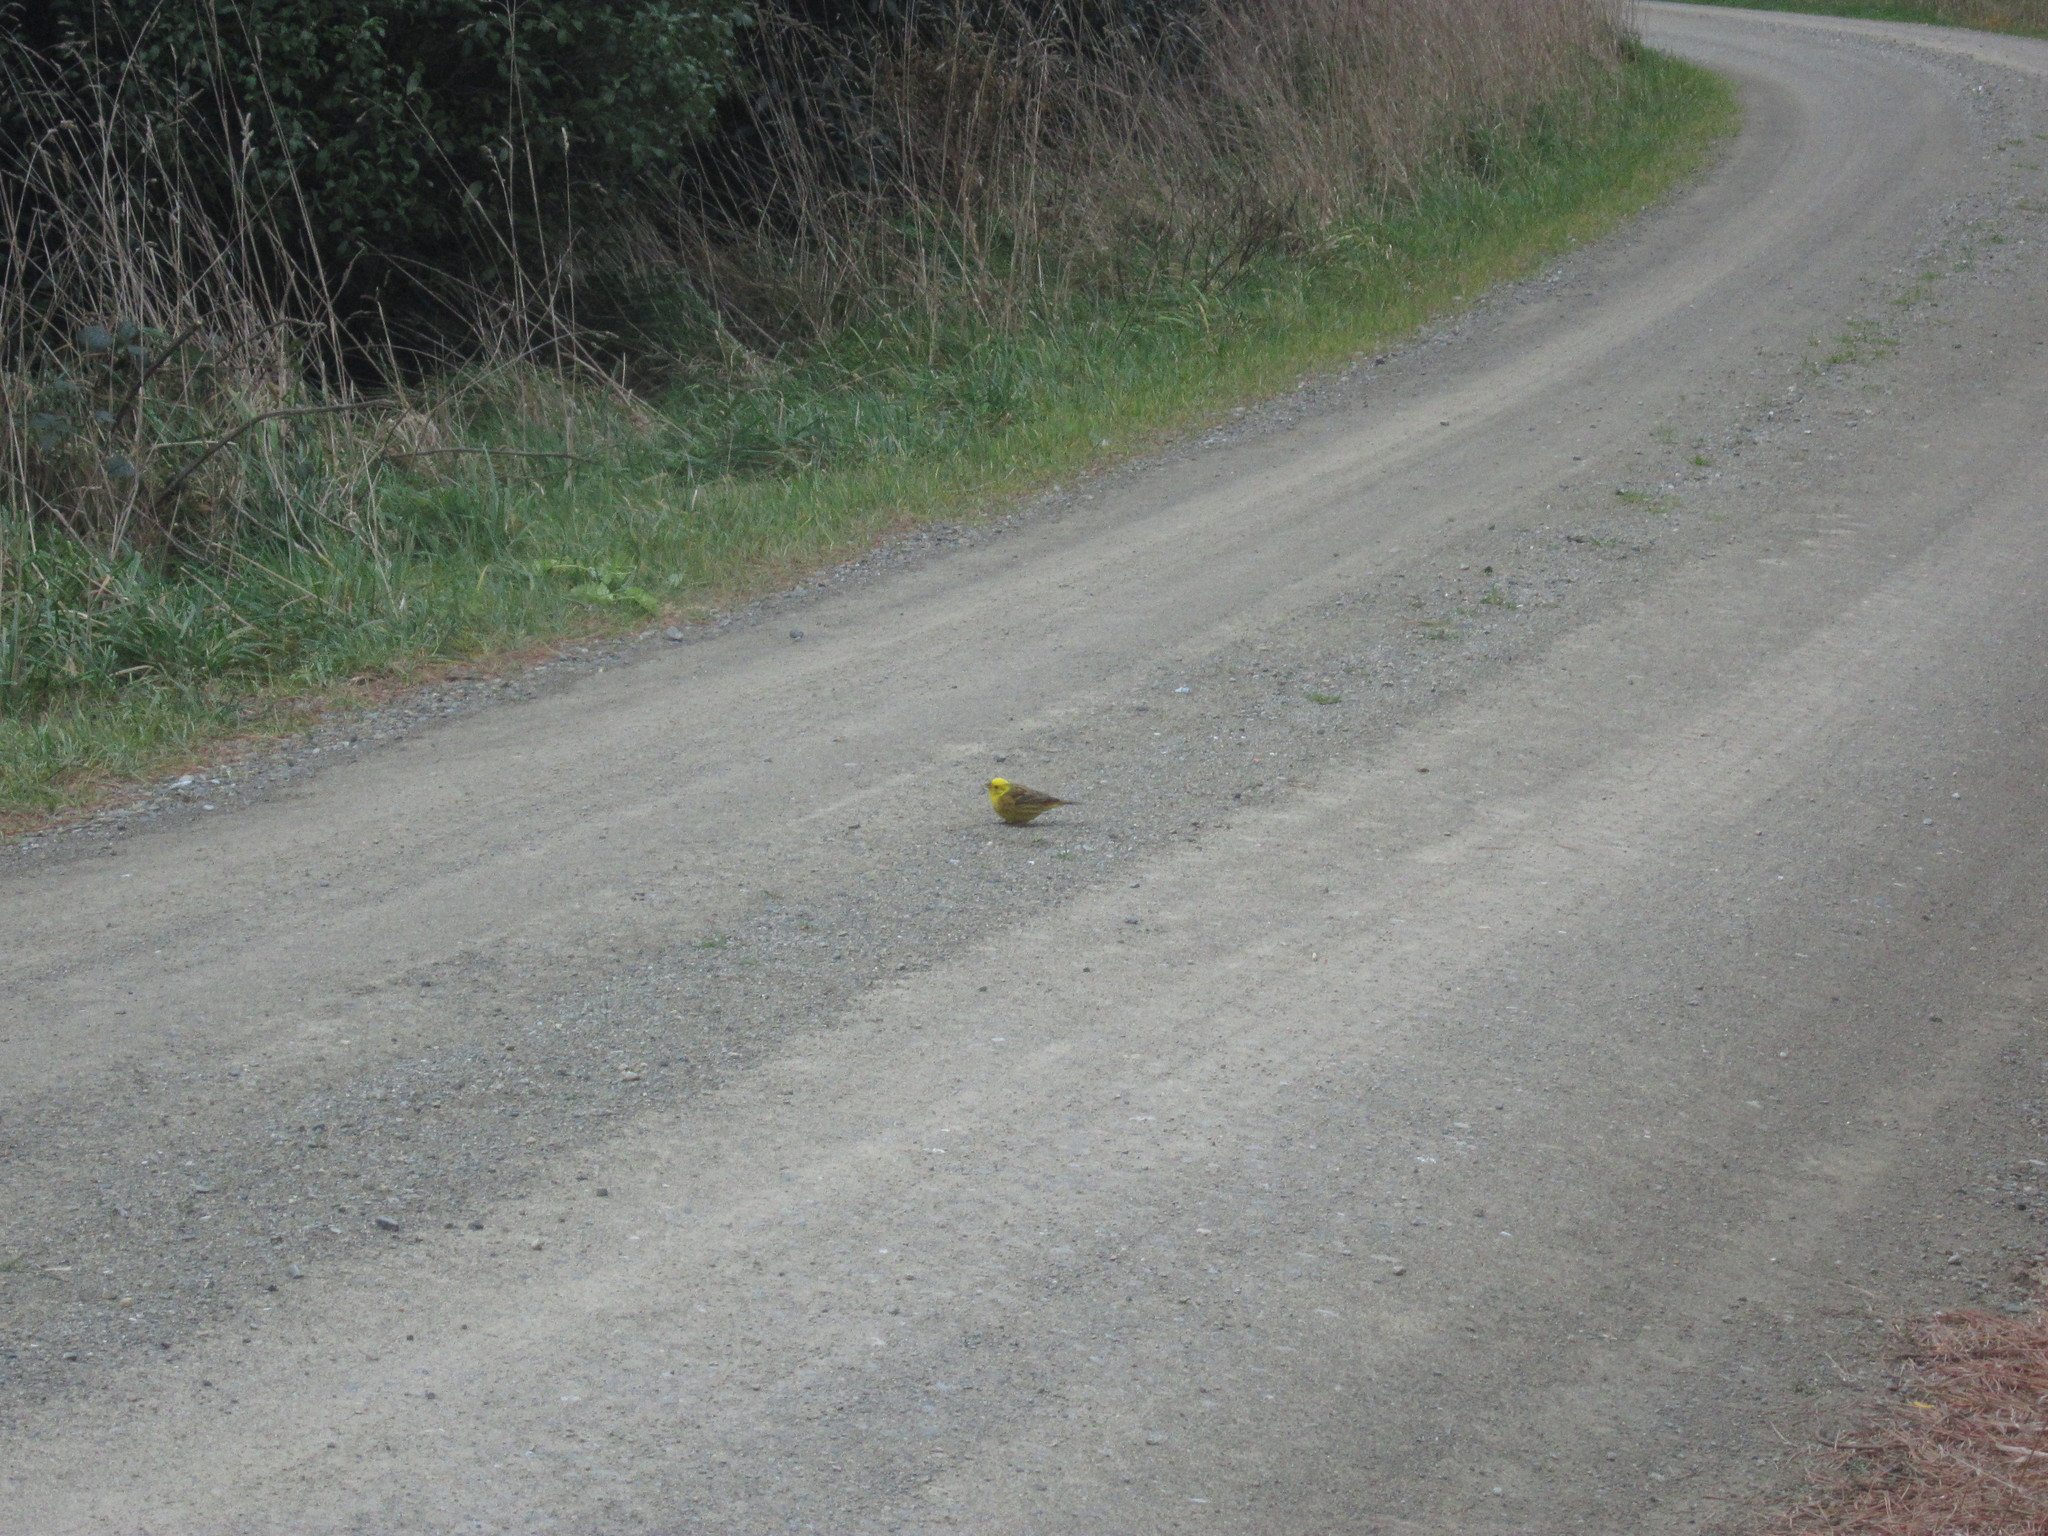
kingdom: Animalia
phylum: Chordata
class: Aves
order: Passeriformes
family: Emberizidae
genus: Emberiza
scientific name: Emberiza citrinella
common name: Yellowhammer
